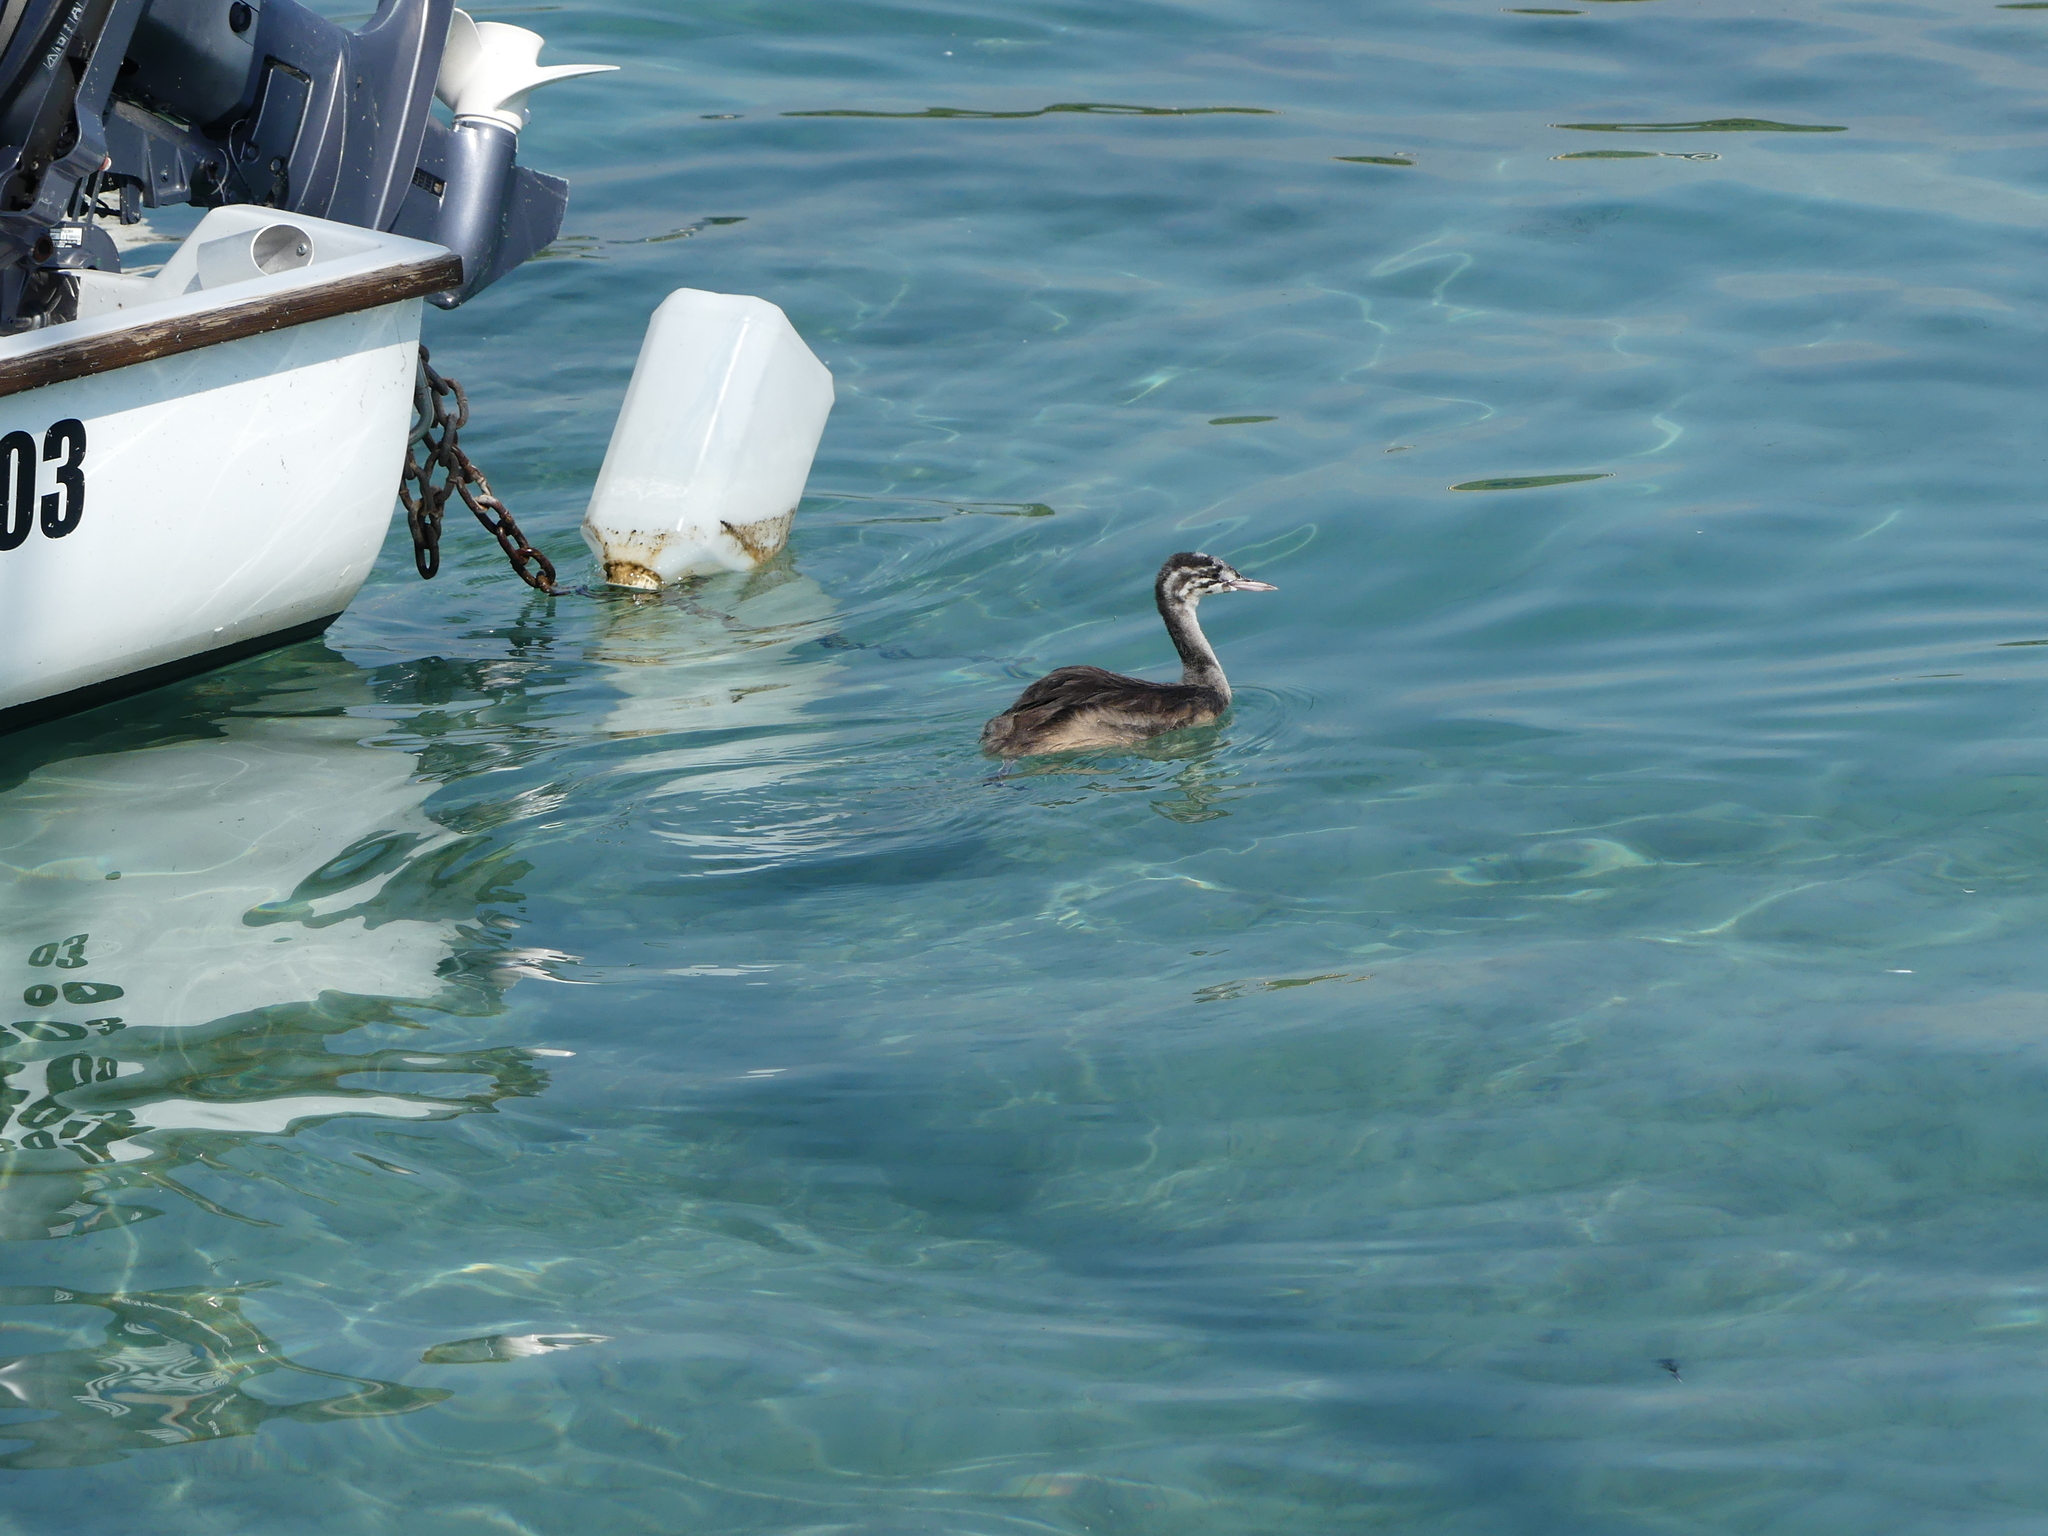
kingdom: Animalia
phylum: Chordata
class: Aves
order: Podicipediformes
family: Podicipedidae
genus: Podiceps
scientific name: Podiceps cristatus
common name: Great crested grebe
